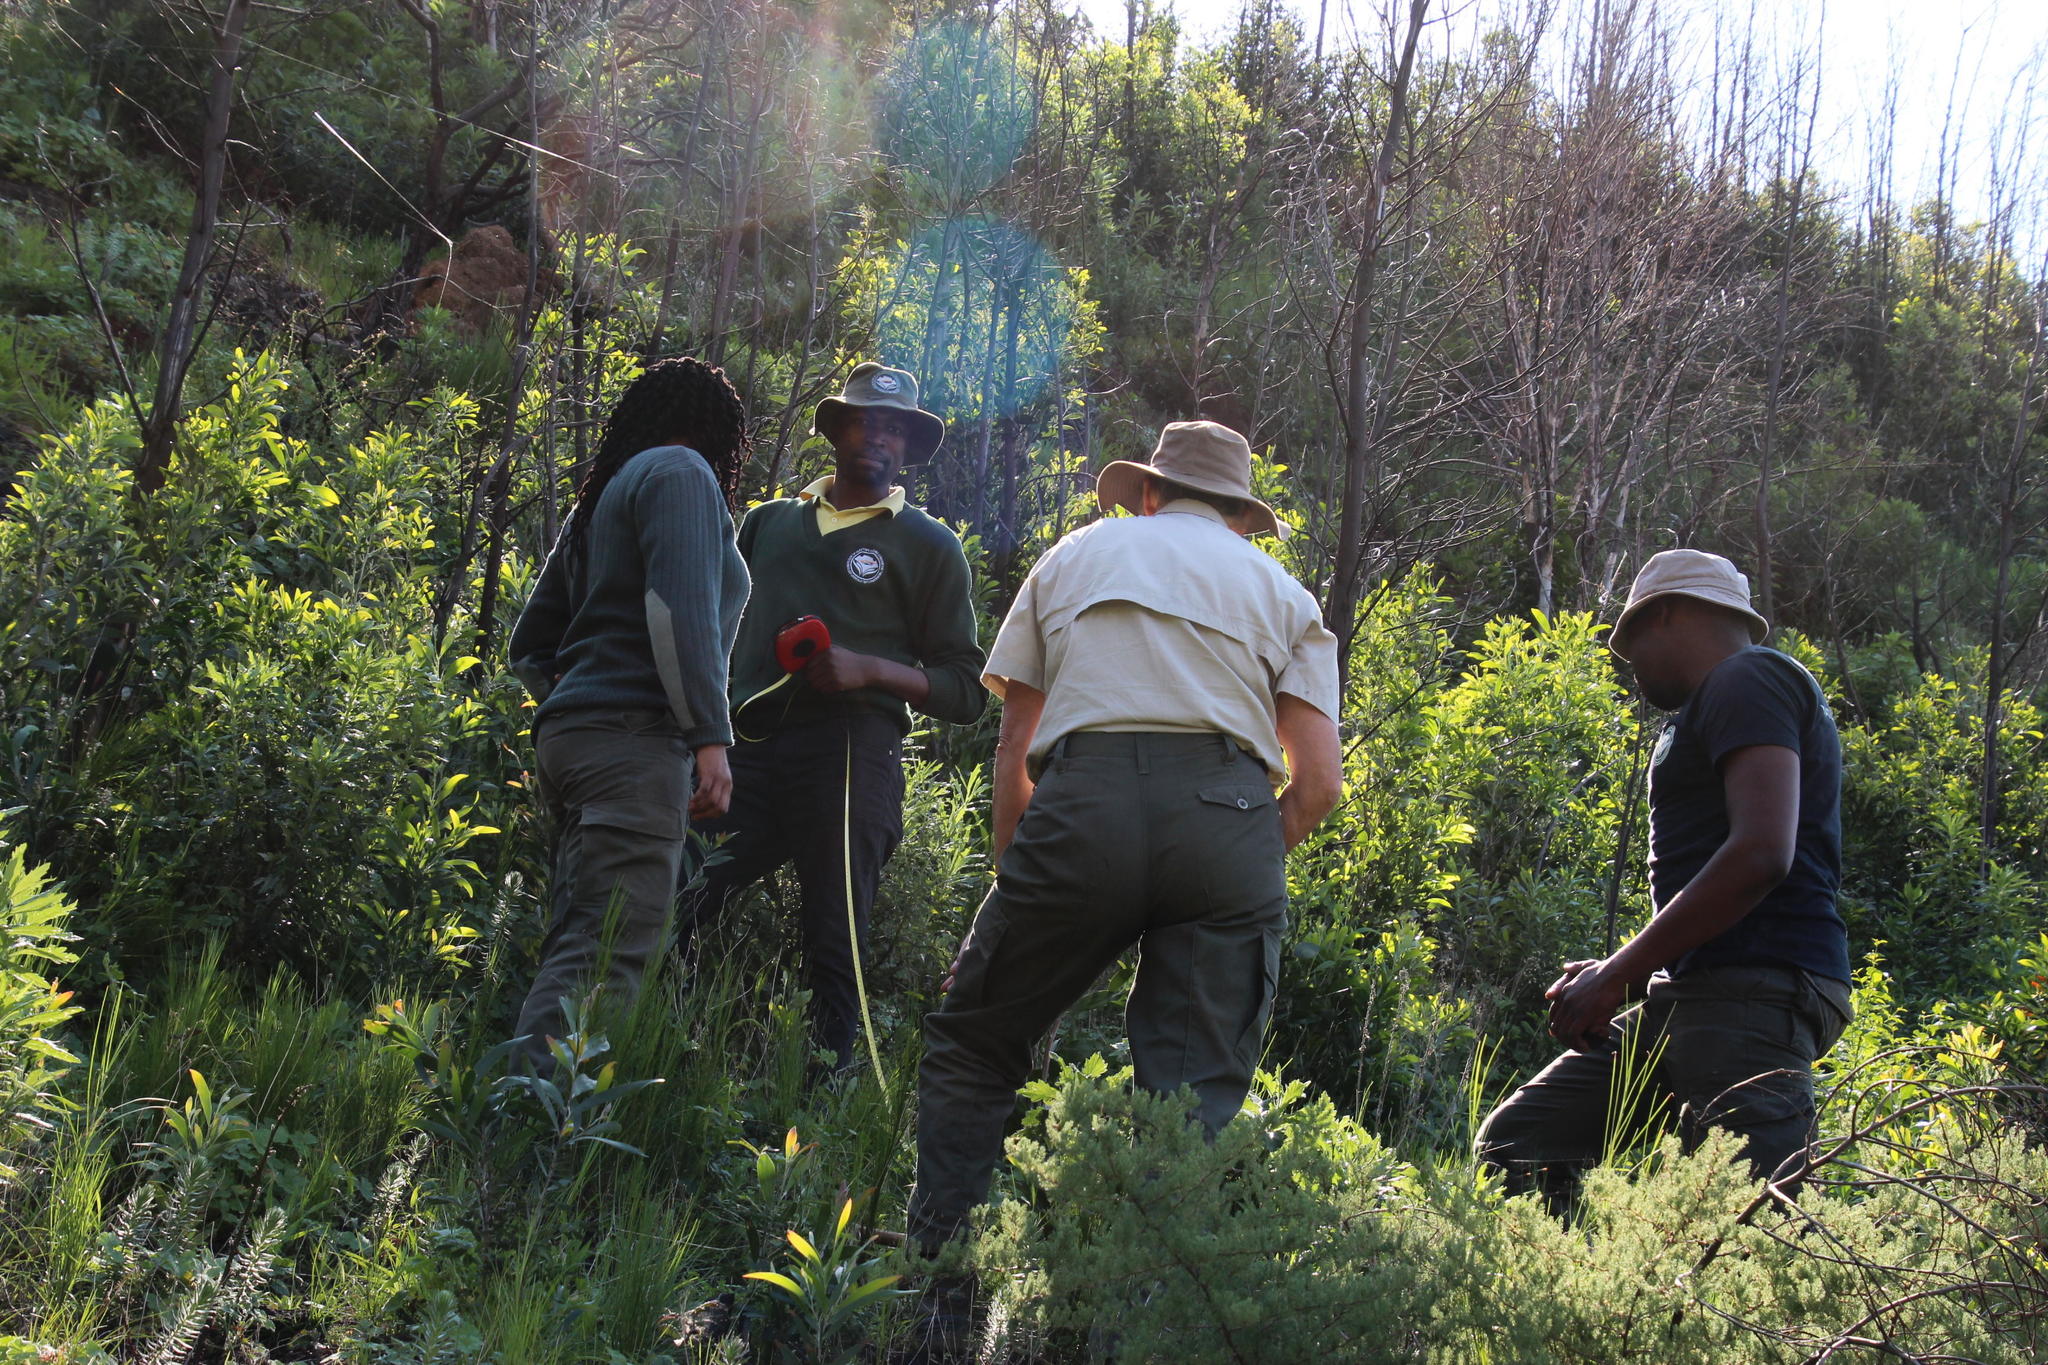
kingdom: Plantae
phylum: Tracheophyta
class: Magnoliopsida
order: Fabales
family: Fabaceae
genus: Acacia
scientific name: Acacia melanoxylon
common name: Blackwood
